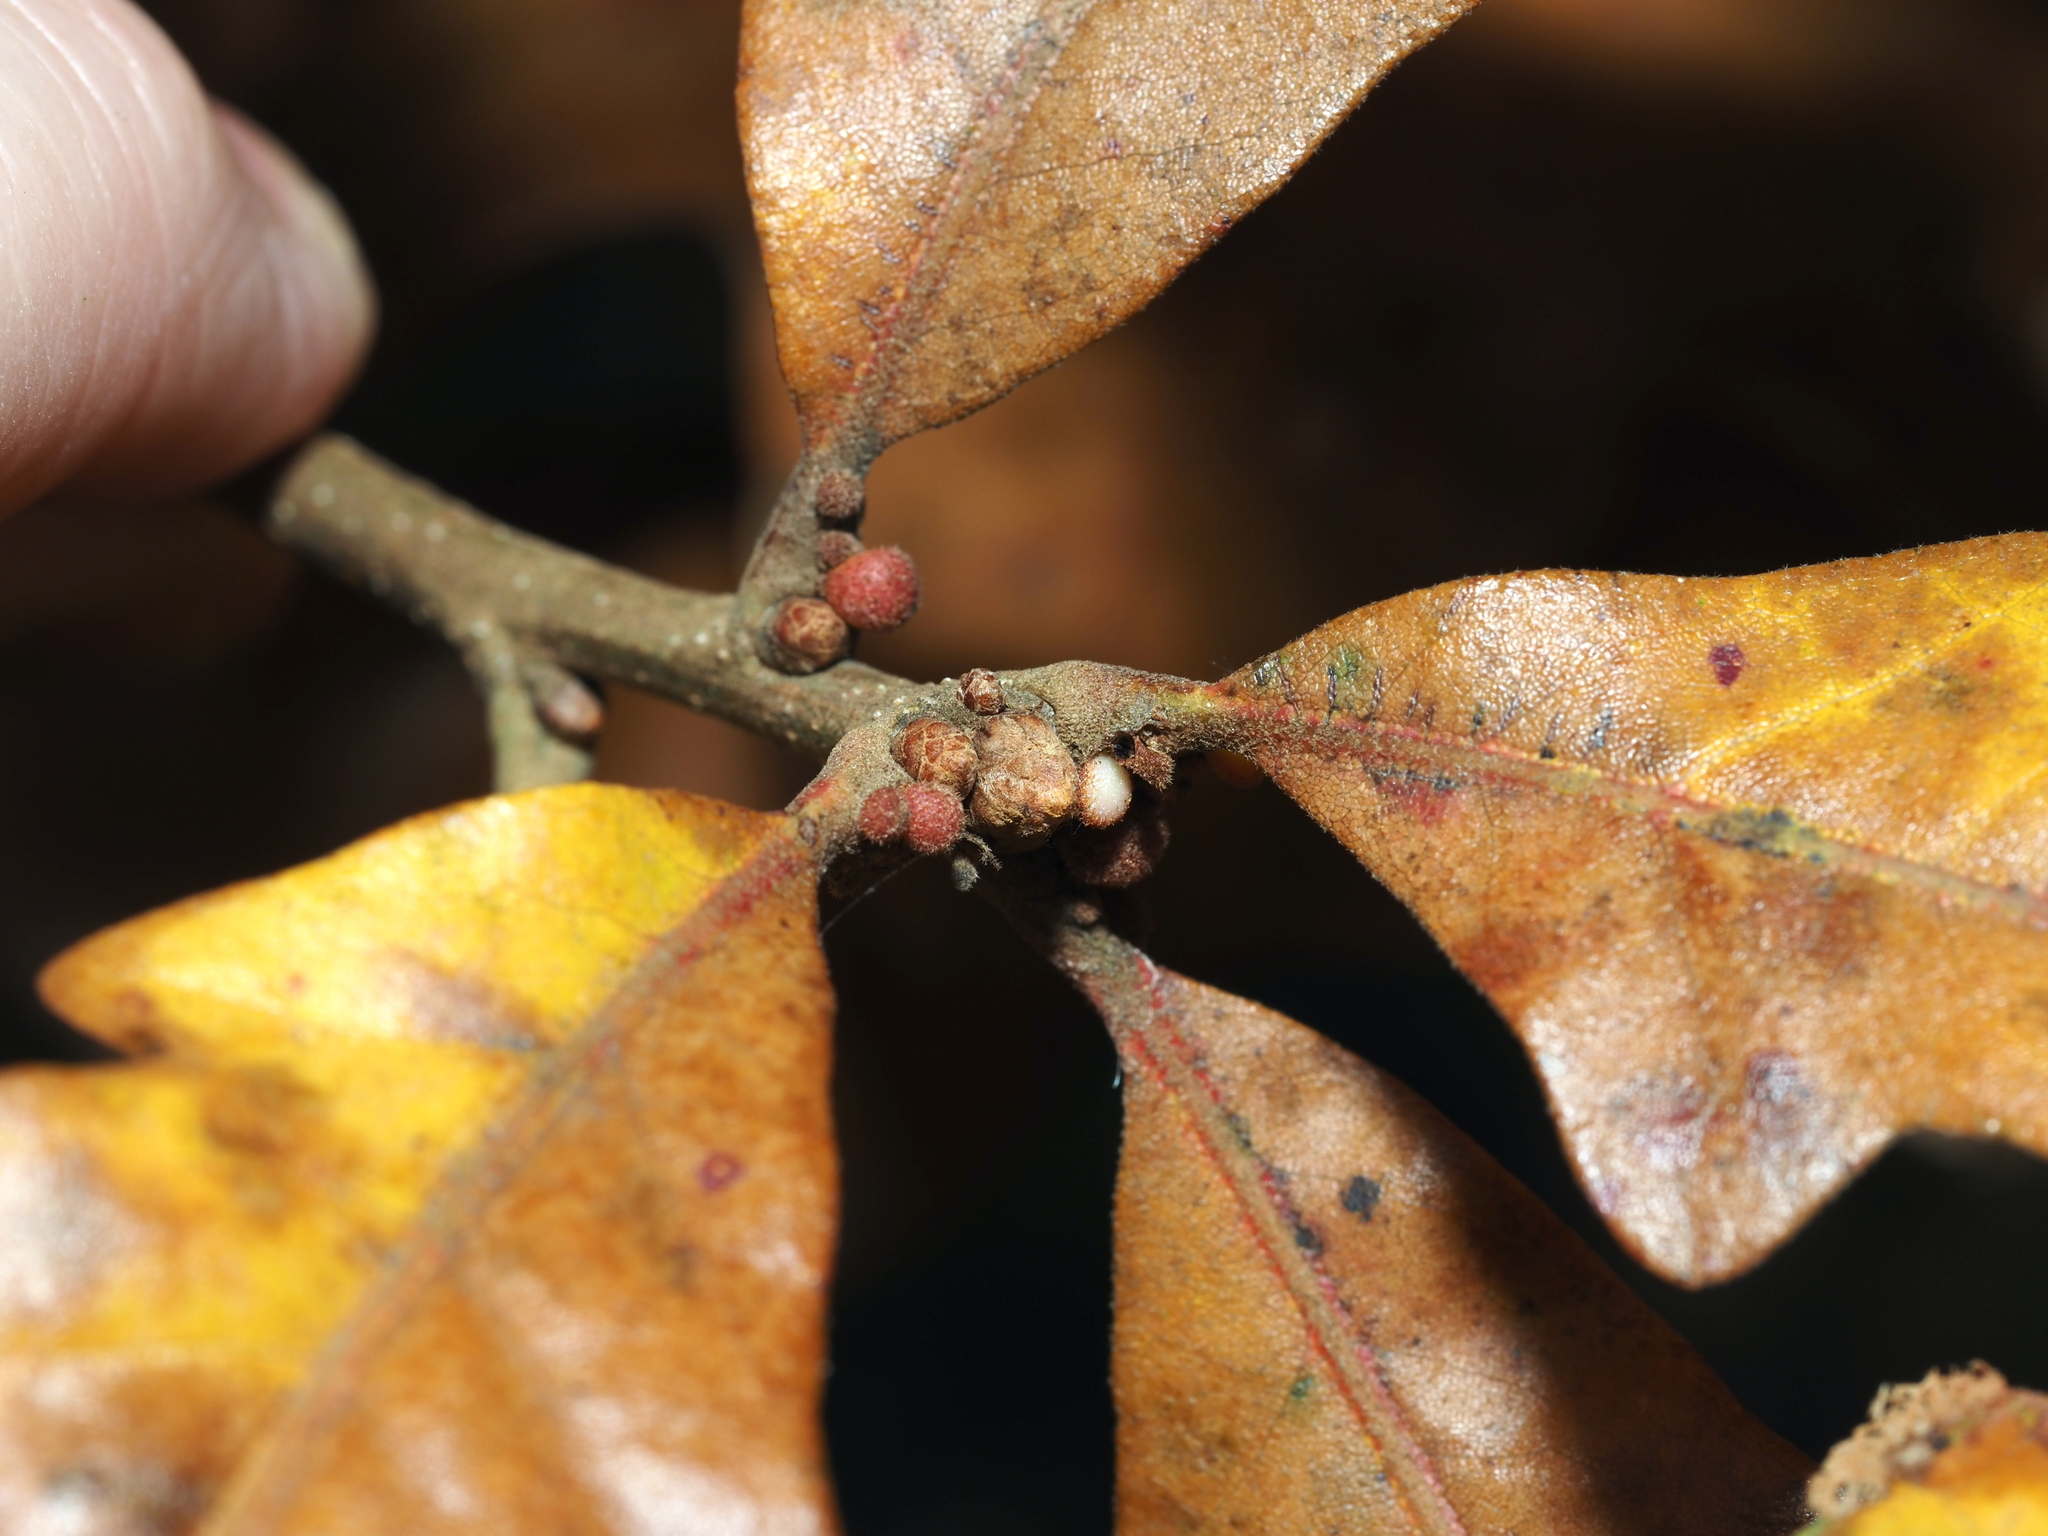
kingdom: Animalia
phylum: Arthropoda
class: Insecta
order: Hymenoptera
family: Cynipidae
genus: Andricus
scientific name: Andricus
